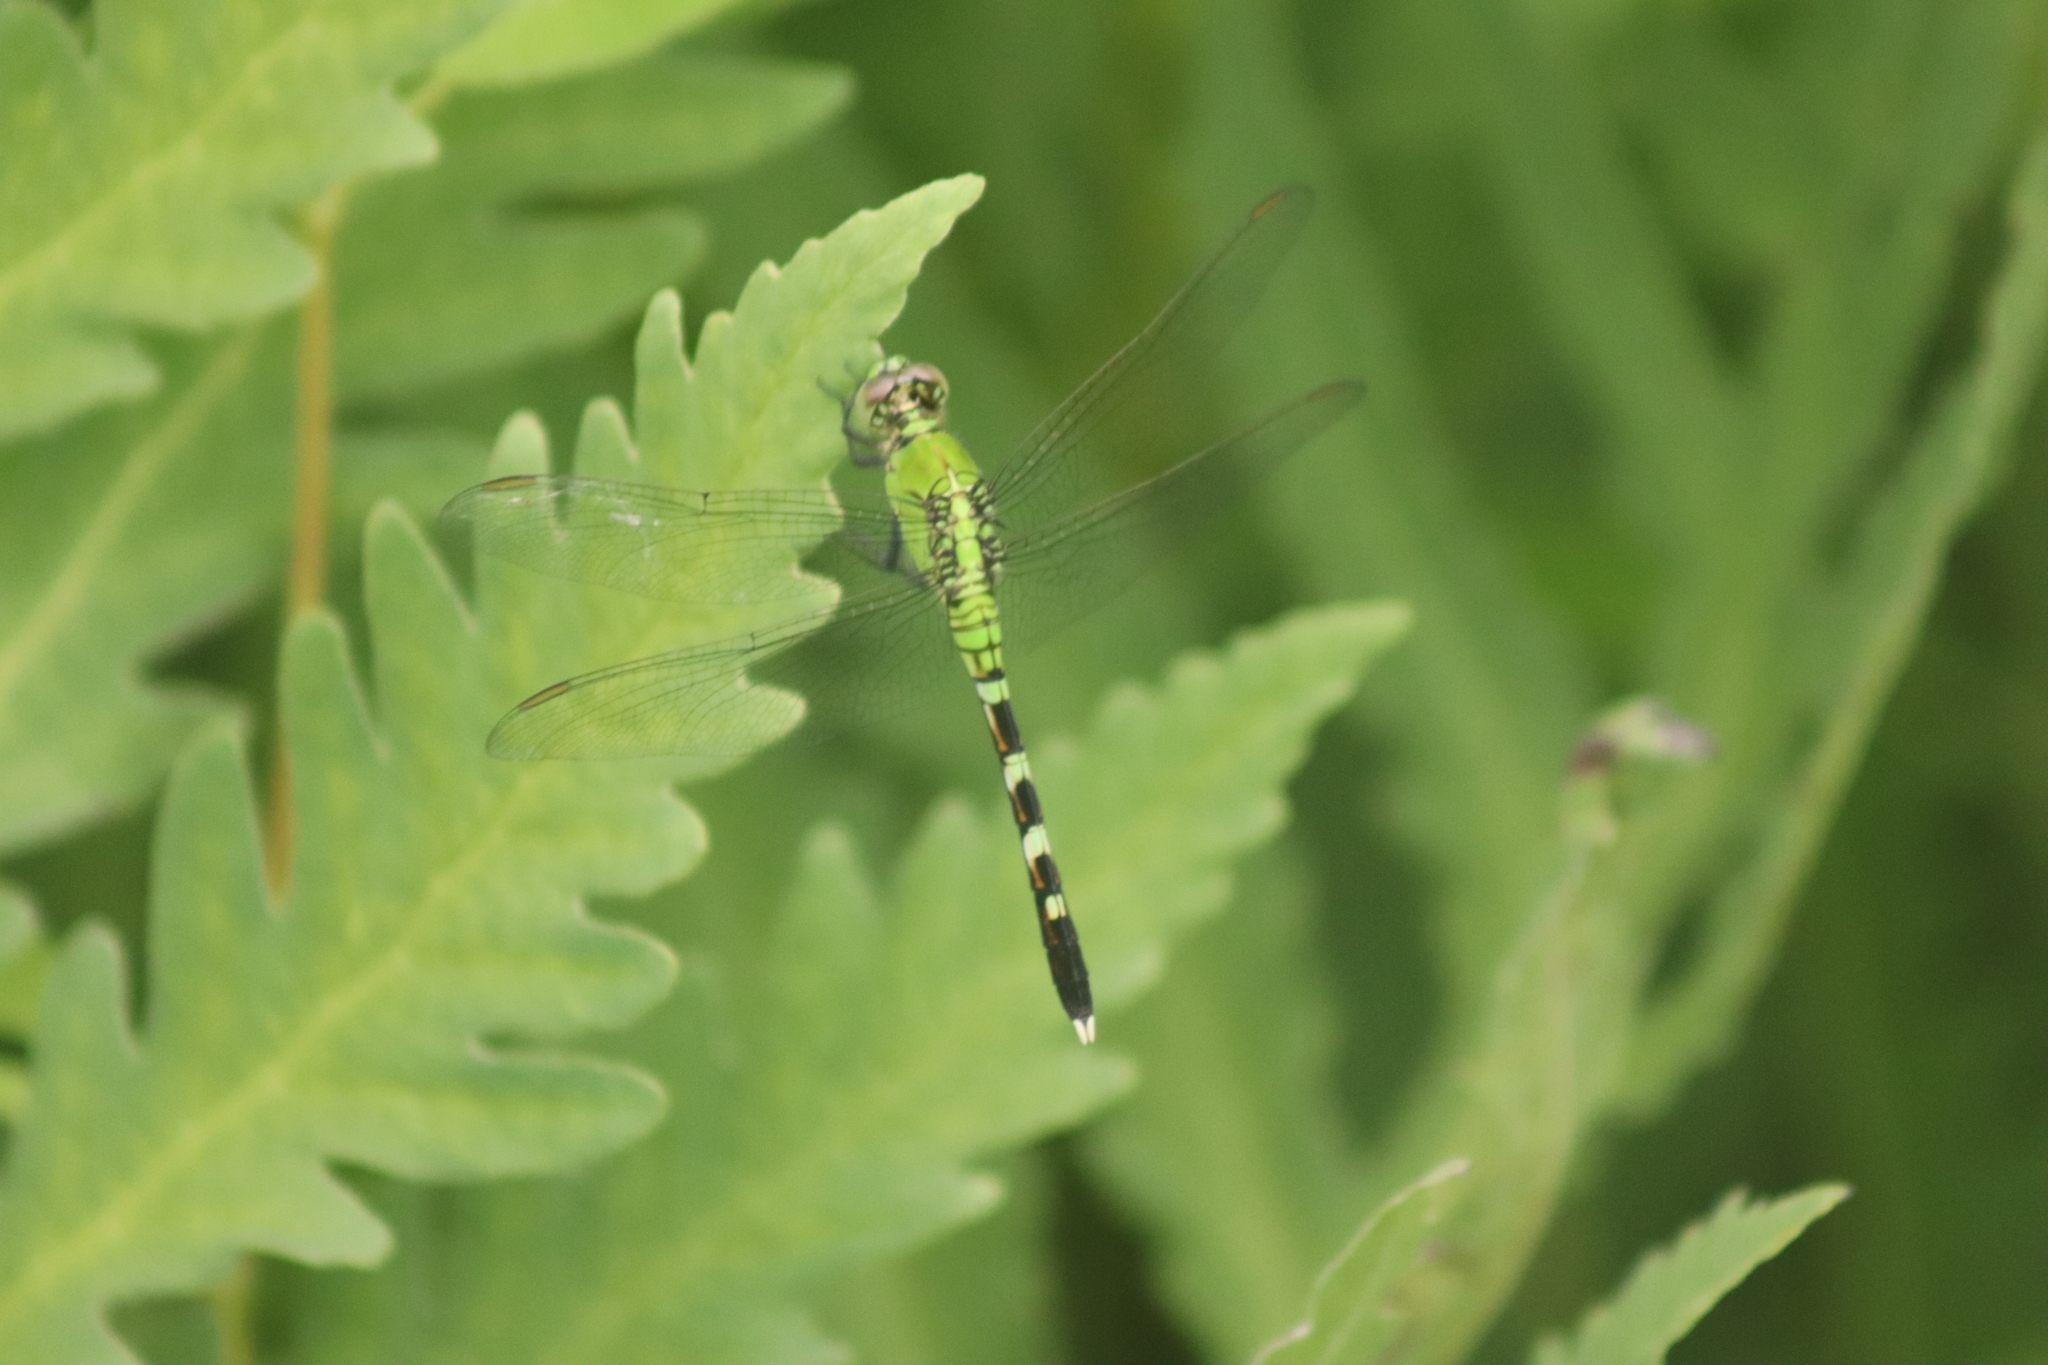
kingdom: Animalia
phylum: Arthropoda
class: Insecta
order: Odonata
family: Libellulidae
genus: Erythemis
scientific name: Erythemis simplicicollis
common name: Eastern pondhawk
